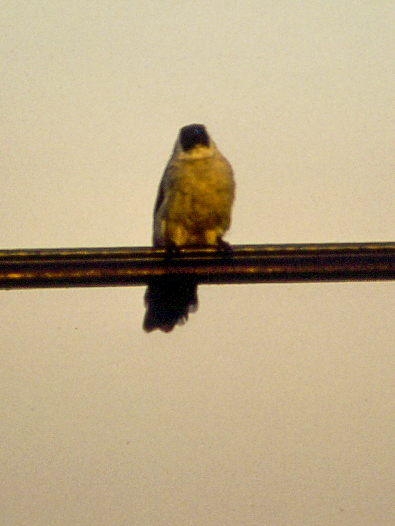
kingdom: Animalia
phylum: Chordata
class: Aves
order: Passeriformes
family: Pycnonotidae
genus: Pycnonotus
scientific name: Pycnonotus aurigaster
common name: Sooty-headed bulbul
